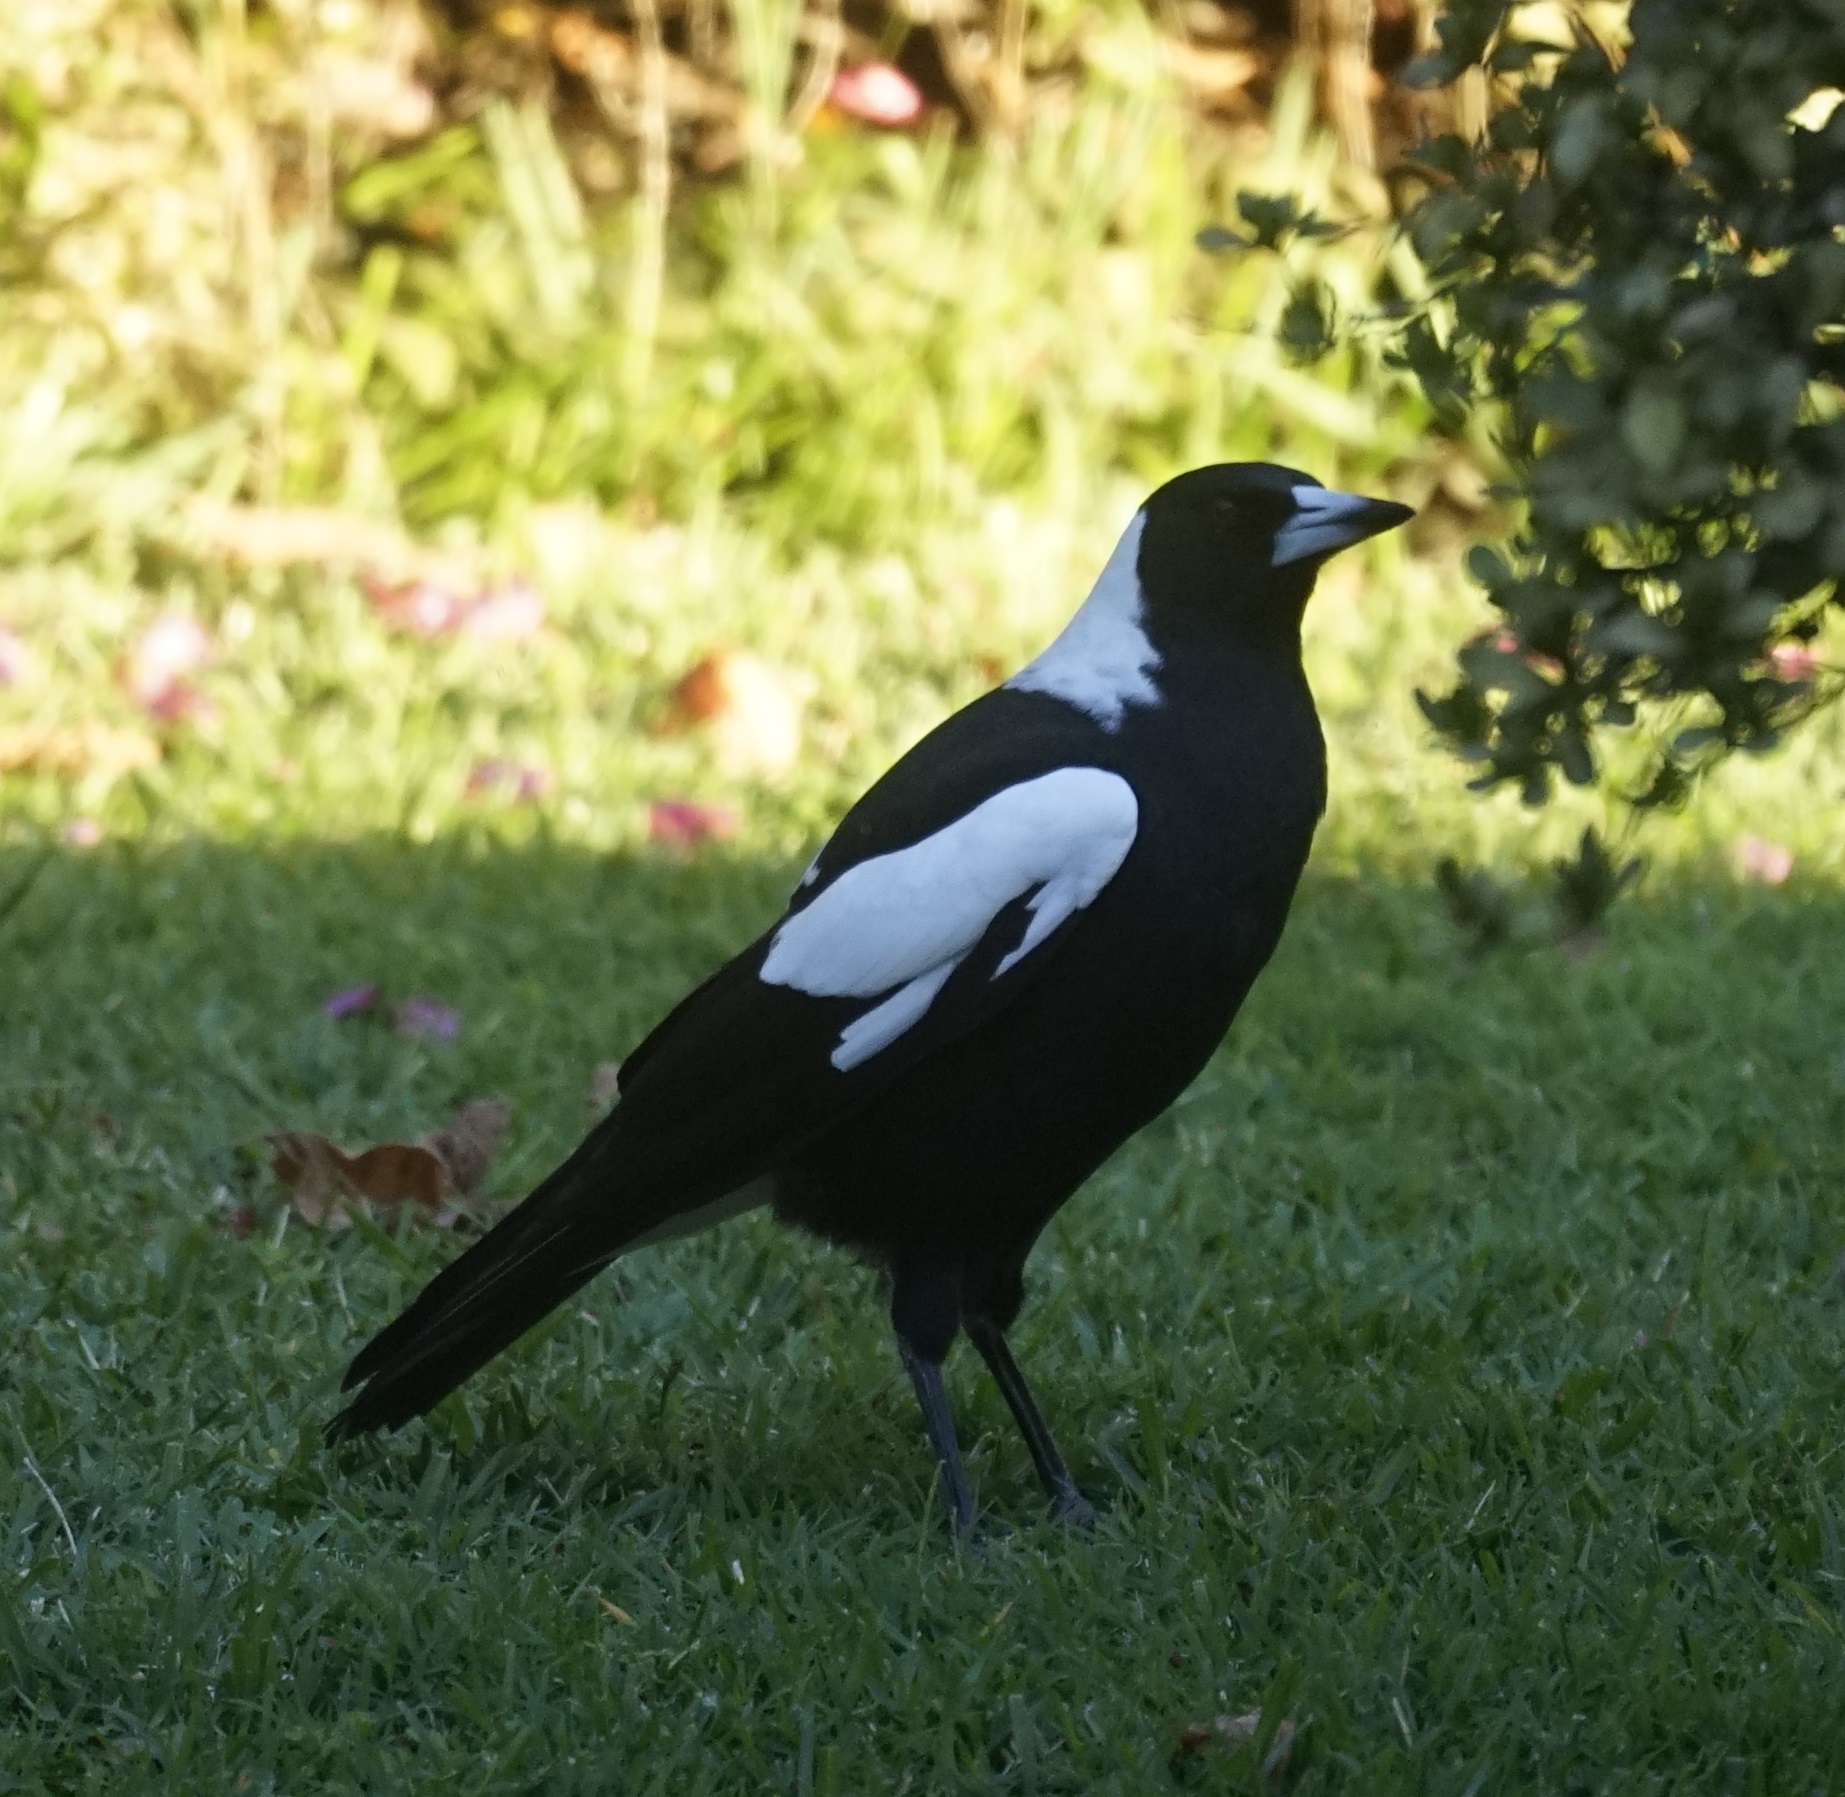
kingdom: Animalia
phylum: Chordata
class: Aves
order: Passeriformes
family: Cracticidae
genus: Gymnorhina
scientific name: Gymnorhina tibicen
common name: Australian magpie
